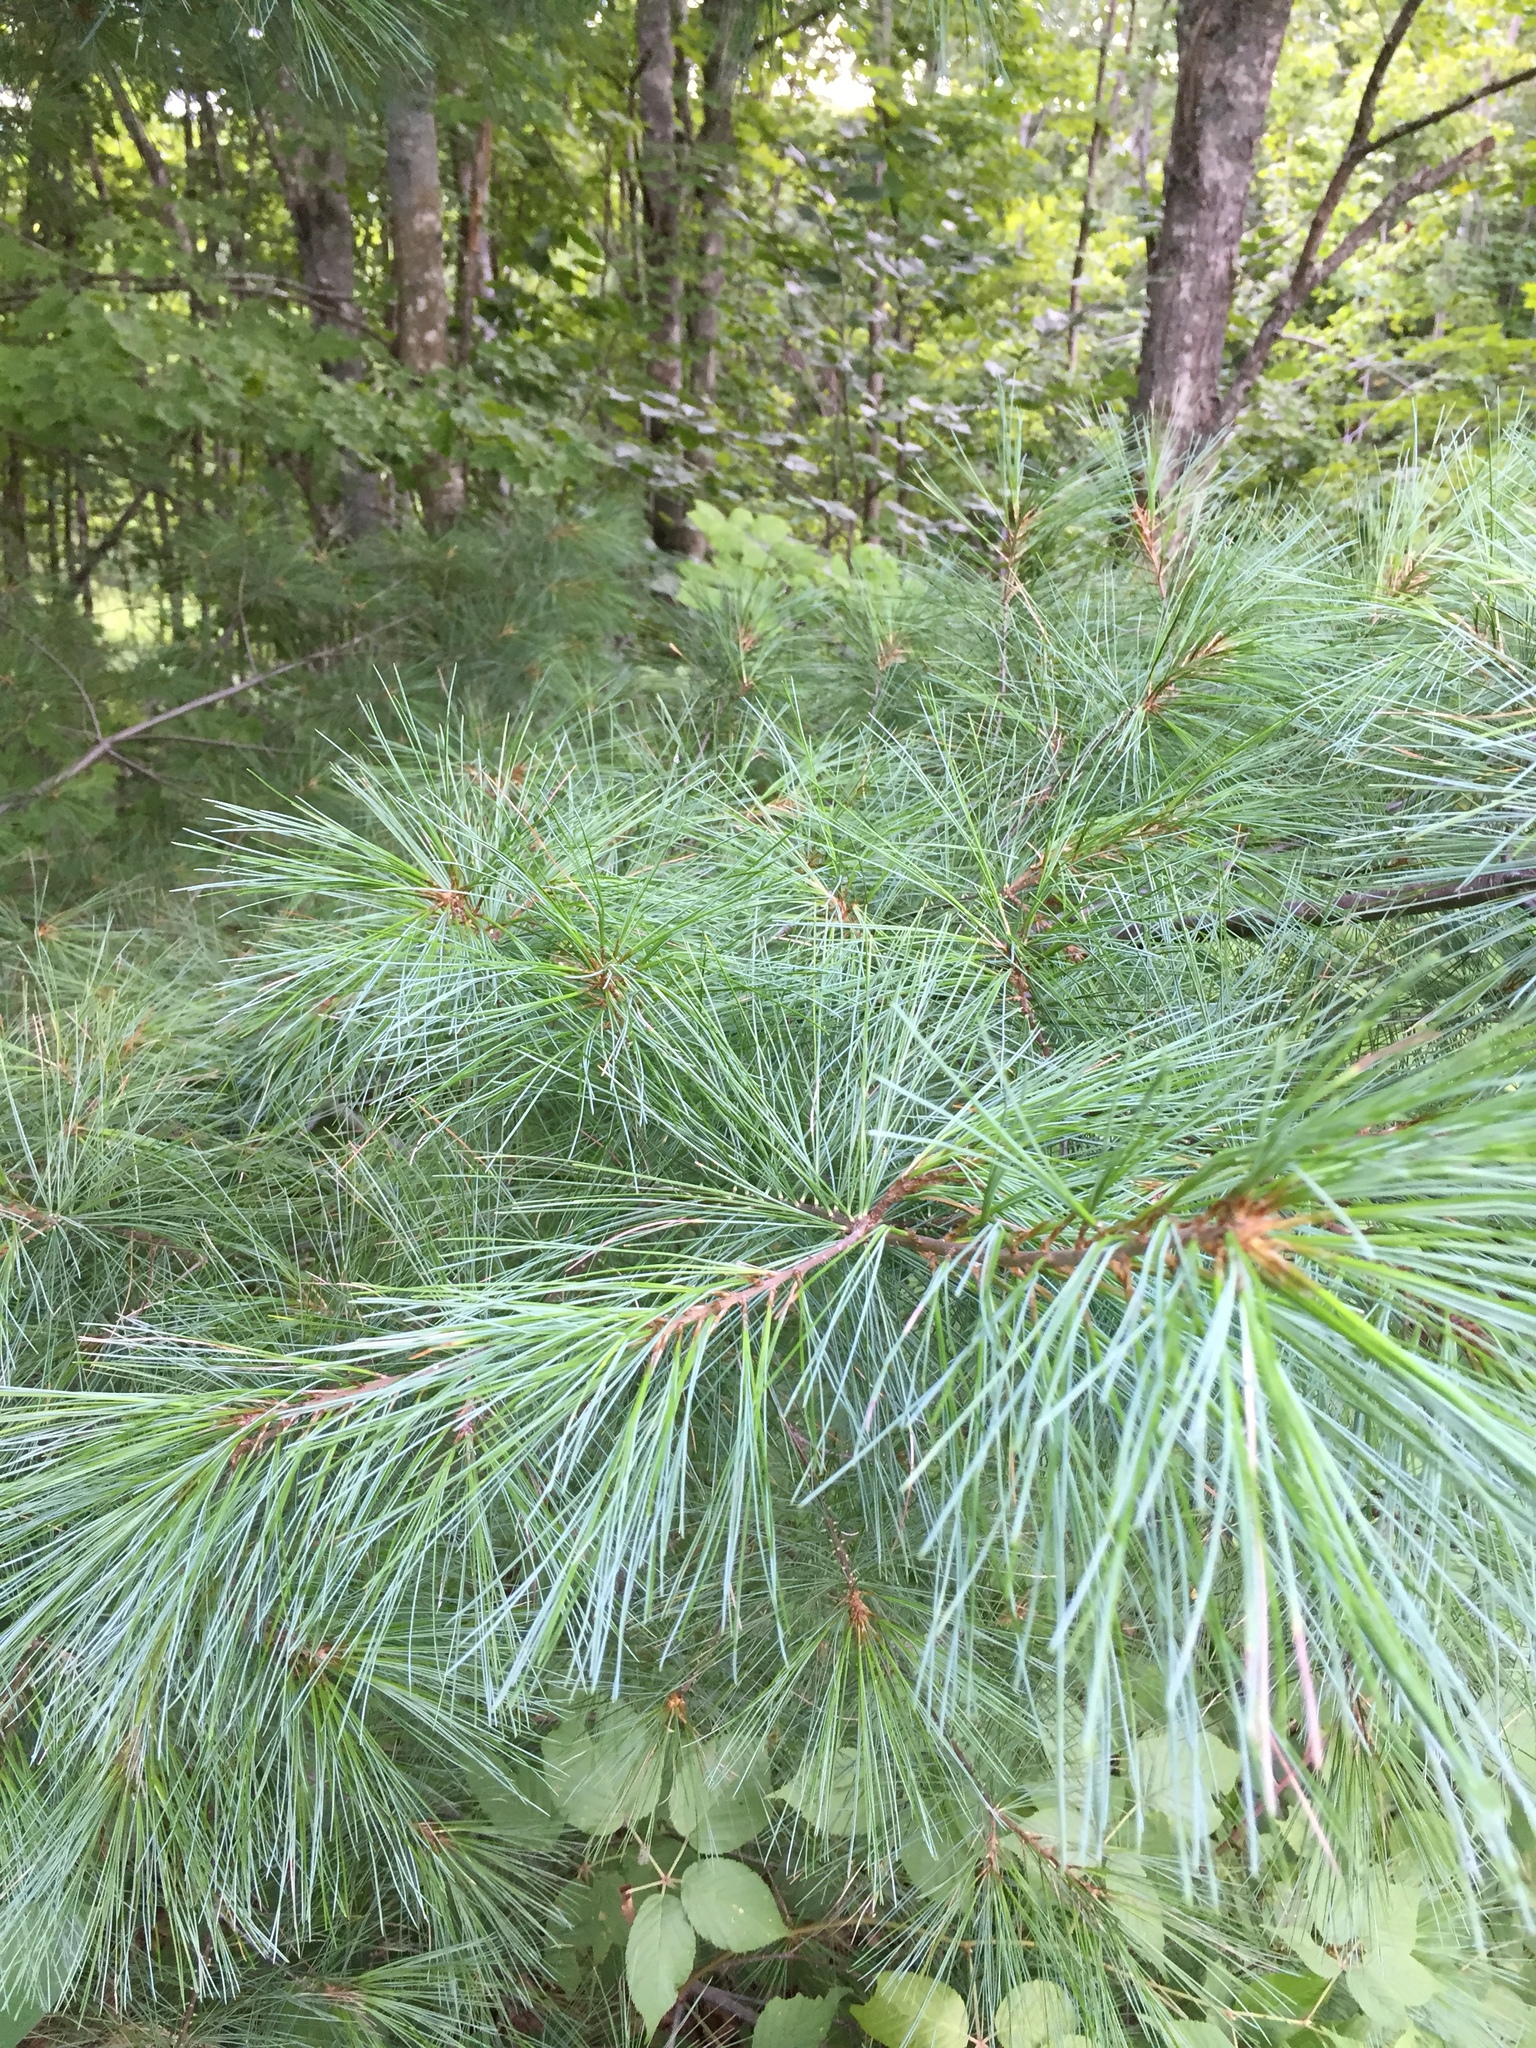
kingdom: Plantae
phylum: Tracheophyta
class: Pinopsida
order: Pinales
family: Pinaceae
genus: Pinus
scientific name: Pinus strobus
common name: Weymouth pine
